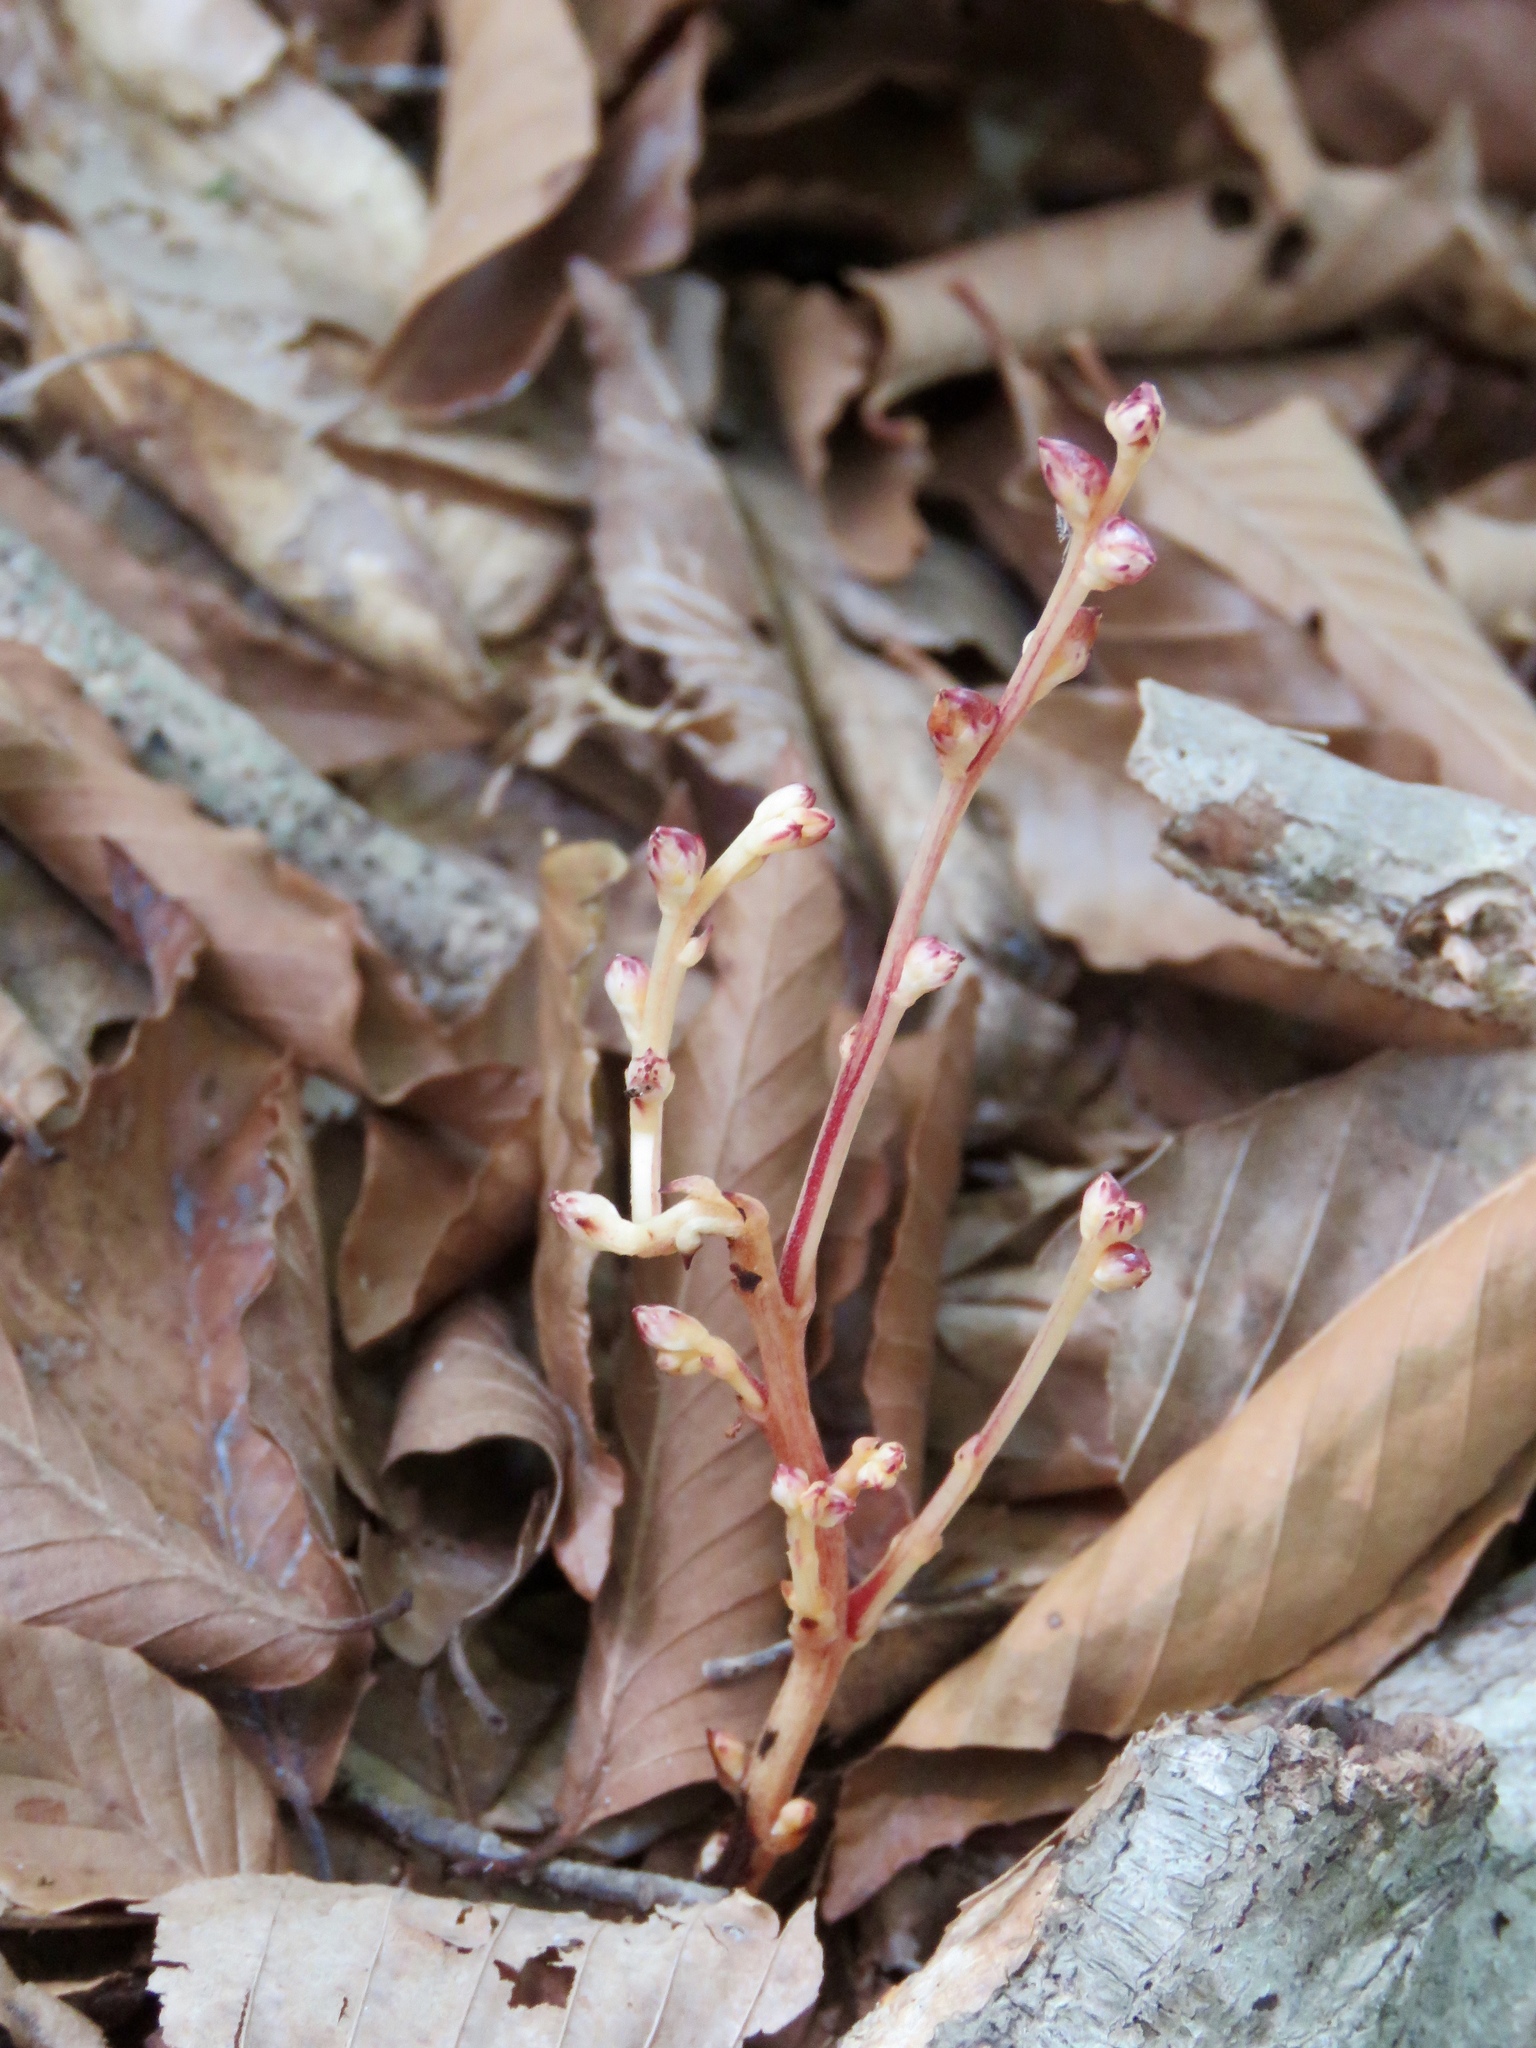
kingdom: Plantae
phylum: Tracheophyta
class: Magnoliopsida
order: Lamiales
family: Orobanchaceae
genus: Epifagus
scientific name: Epifagus virginiana
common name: Beechdrops
